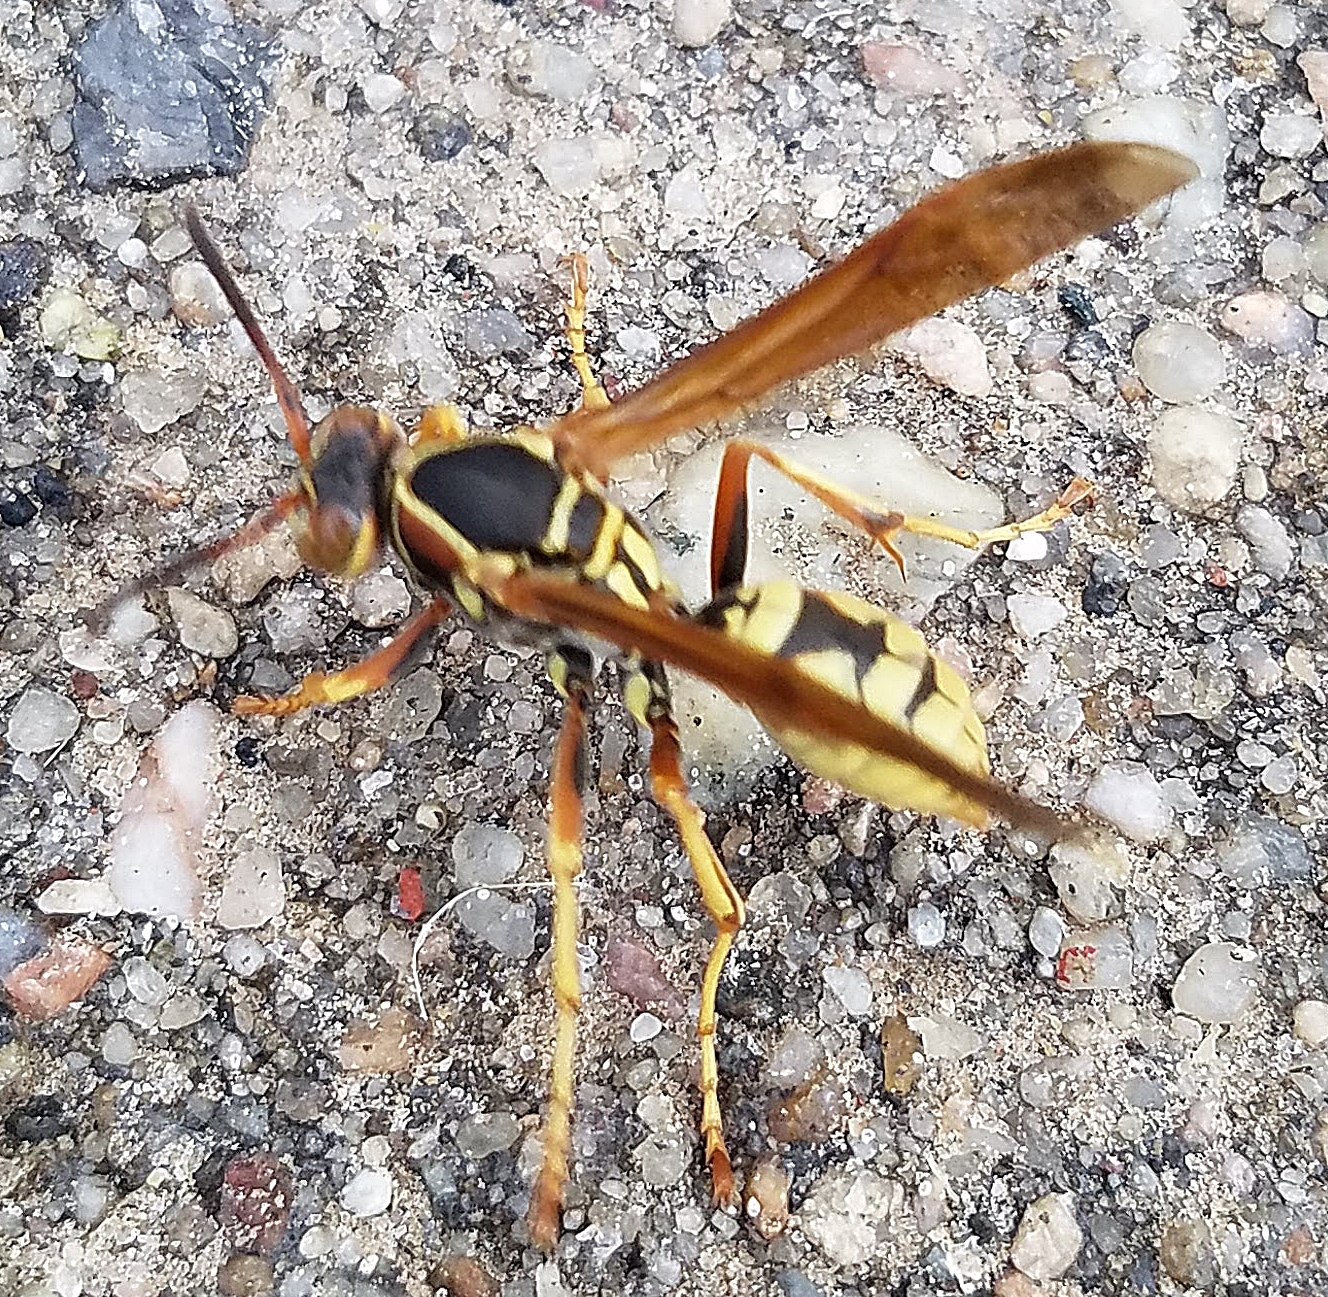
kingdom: Animalia
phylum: Arthropoda
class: Insecta
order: Hymenoptera
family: Eumenidae
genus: Polistes
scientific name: Polistes aurifer
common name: Paper wasp
